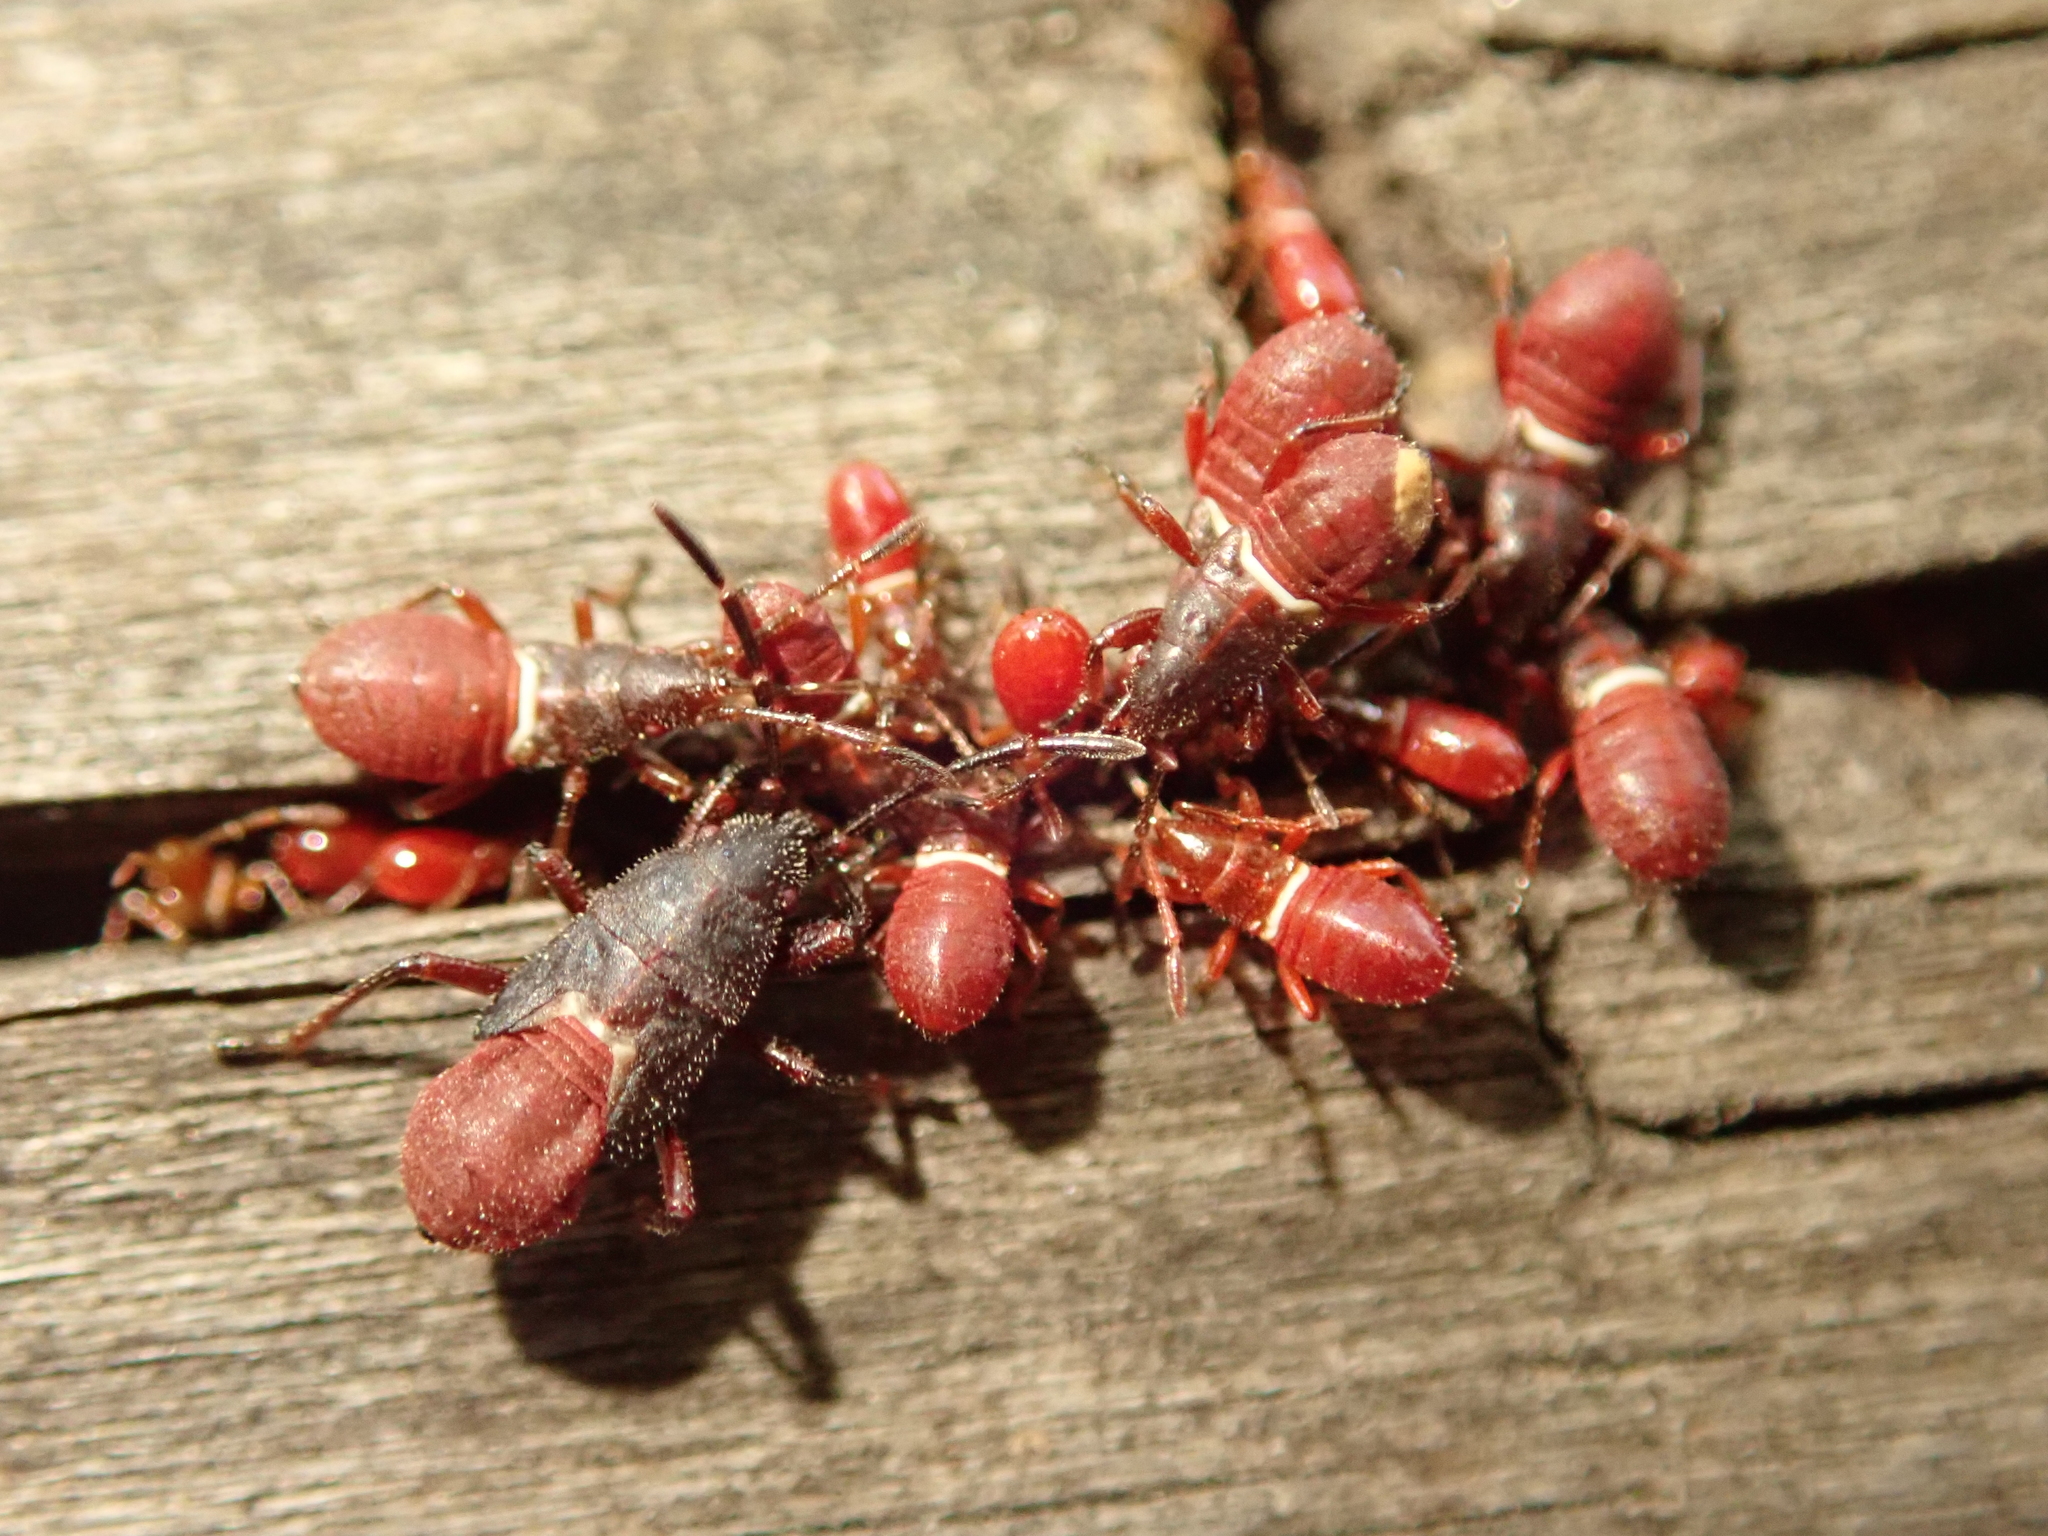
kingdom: Animalia
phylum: Arthropoda
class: Insecta
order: Hemiptera
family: Oxycarenidae
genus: Oxycarenus
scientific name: Oxycarenus lavaterae
